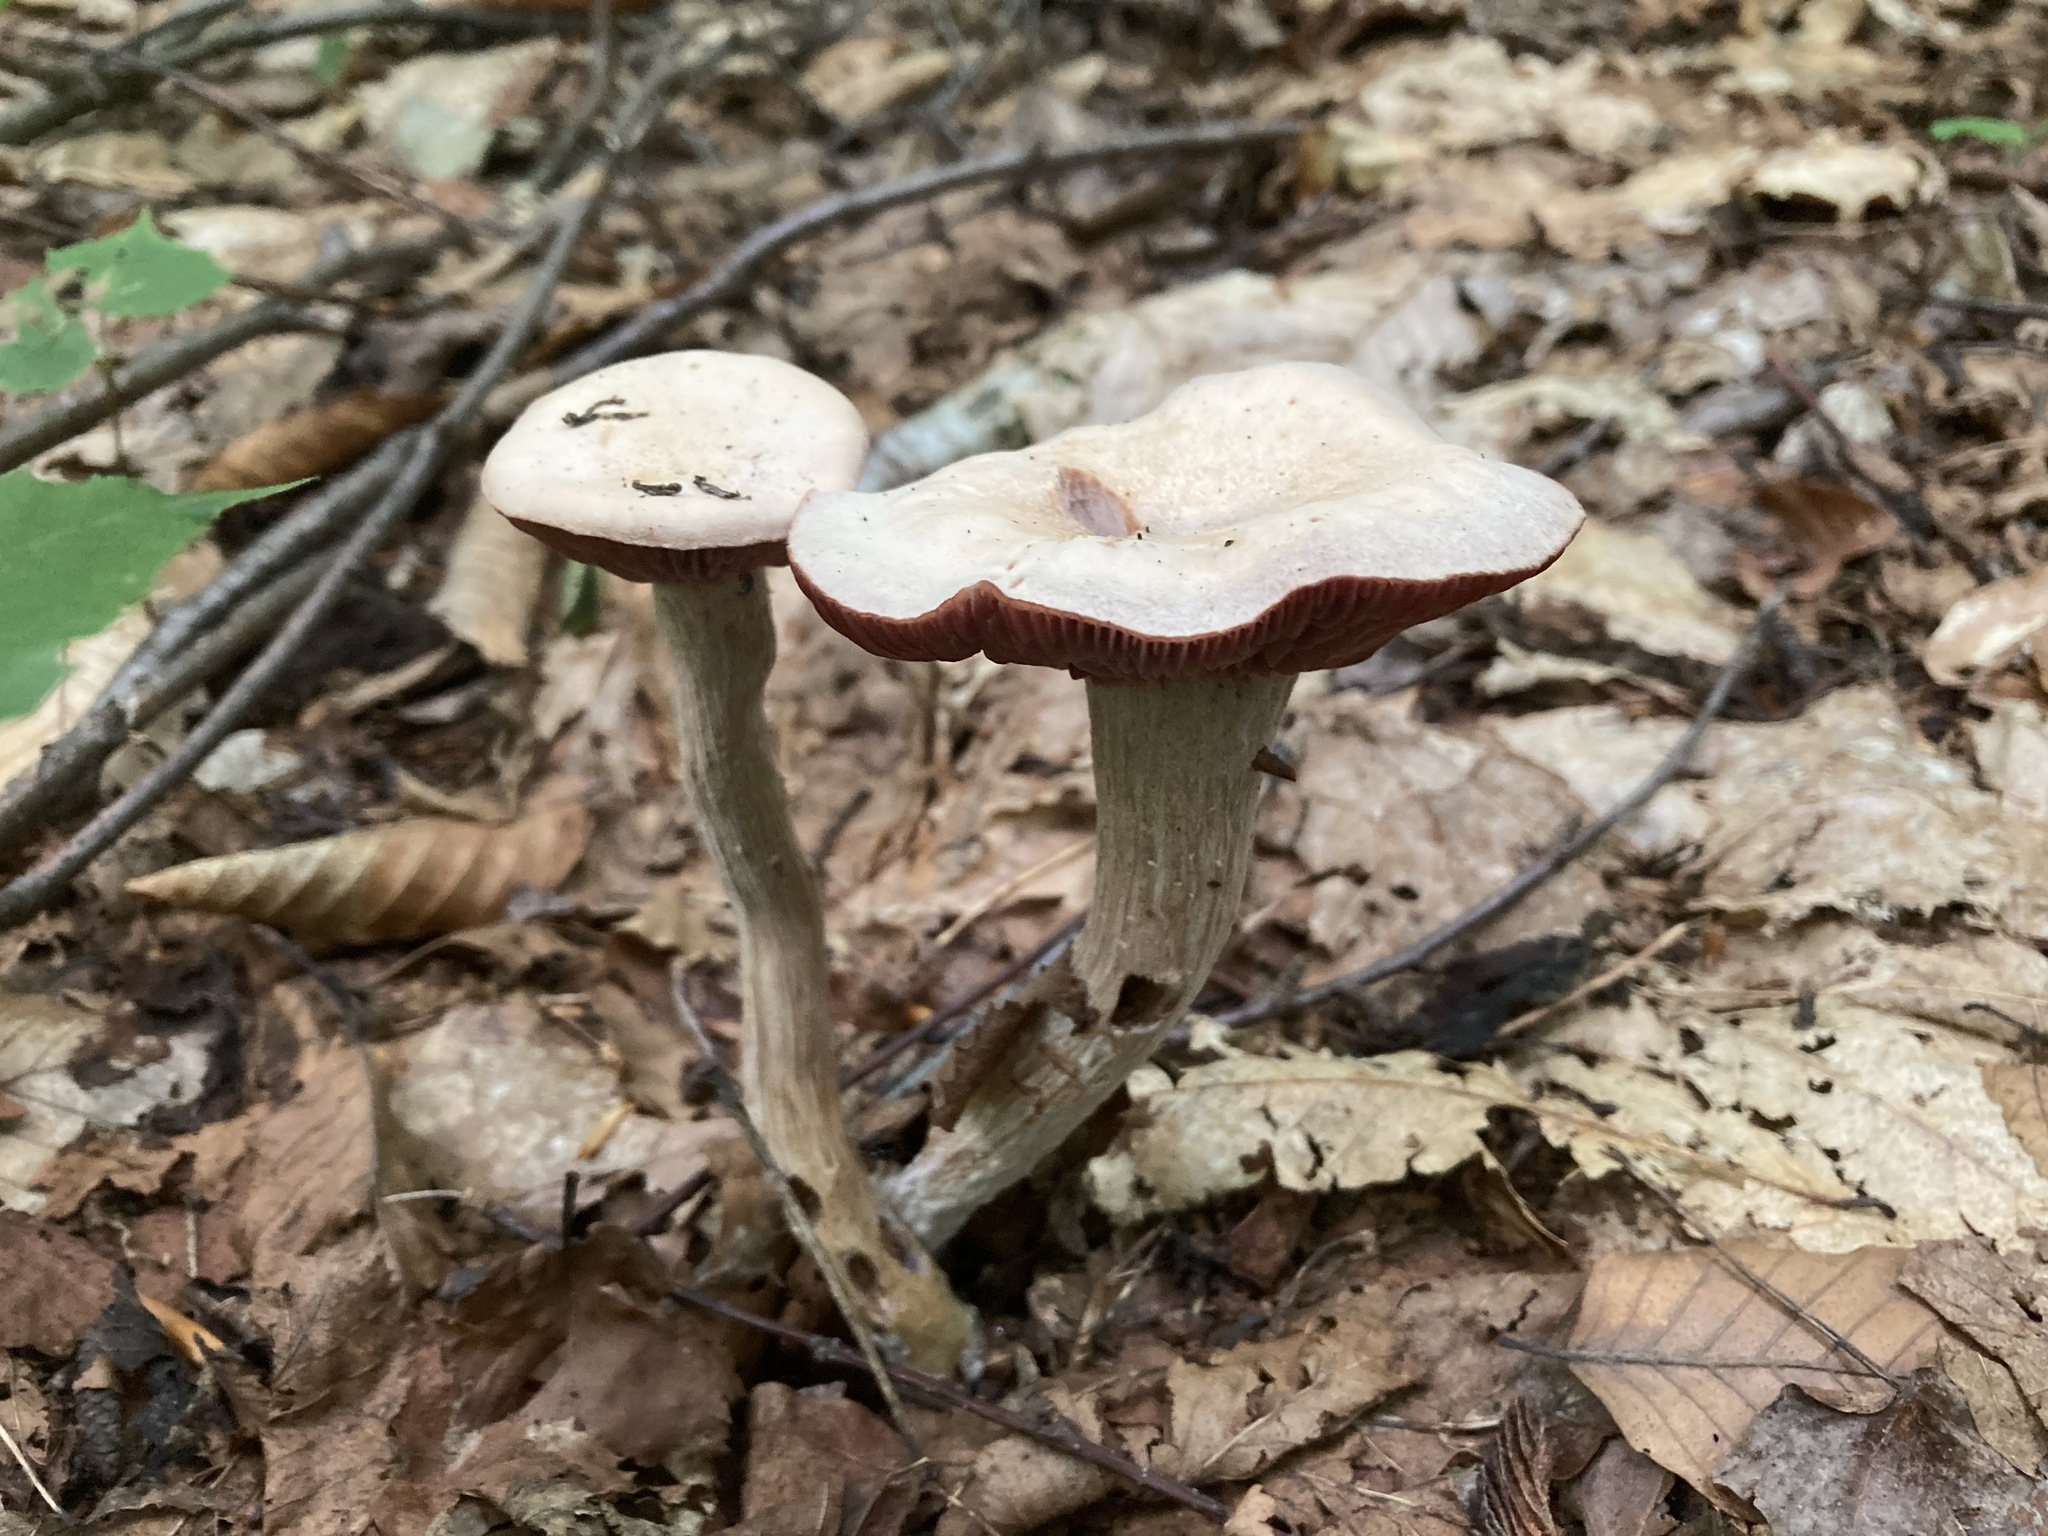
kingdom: Fungi
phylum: Basidiomycota
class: Agaricomycetes
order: Agaricales
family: Hydnangiaceae
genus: Laccaria
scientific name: Laccaria ochropurpurea
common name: Purple laccaria
